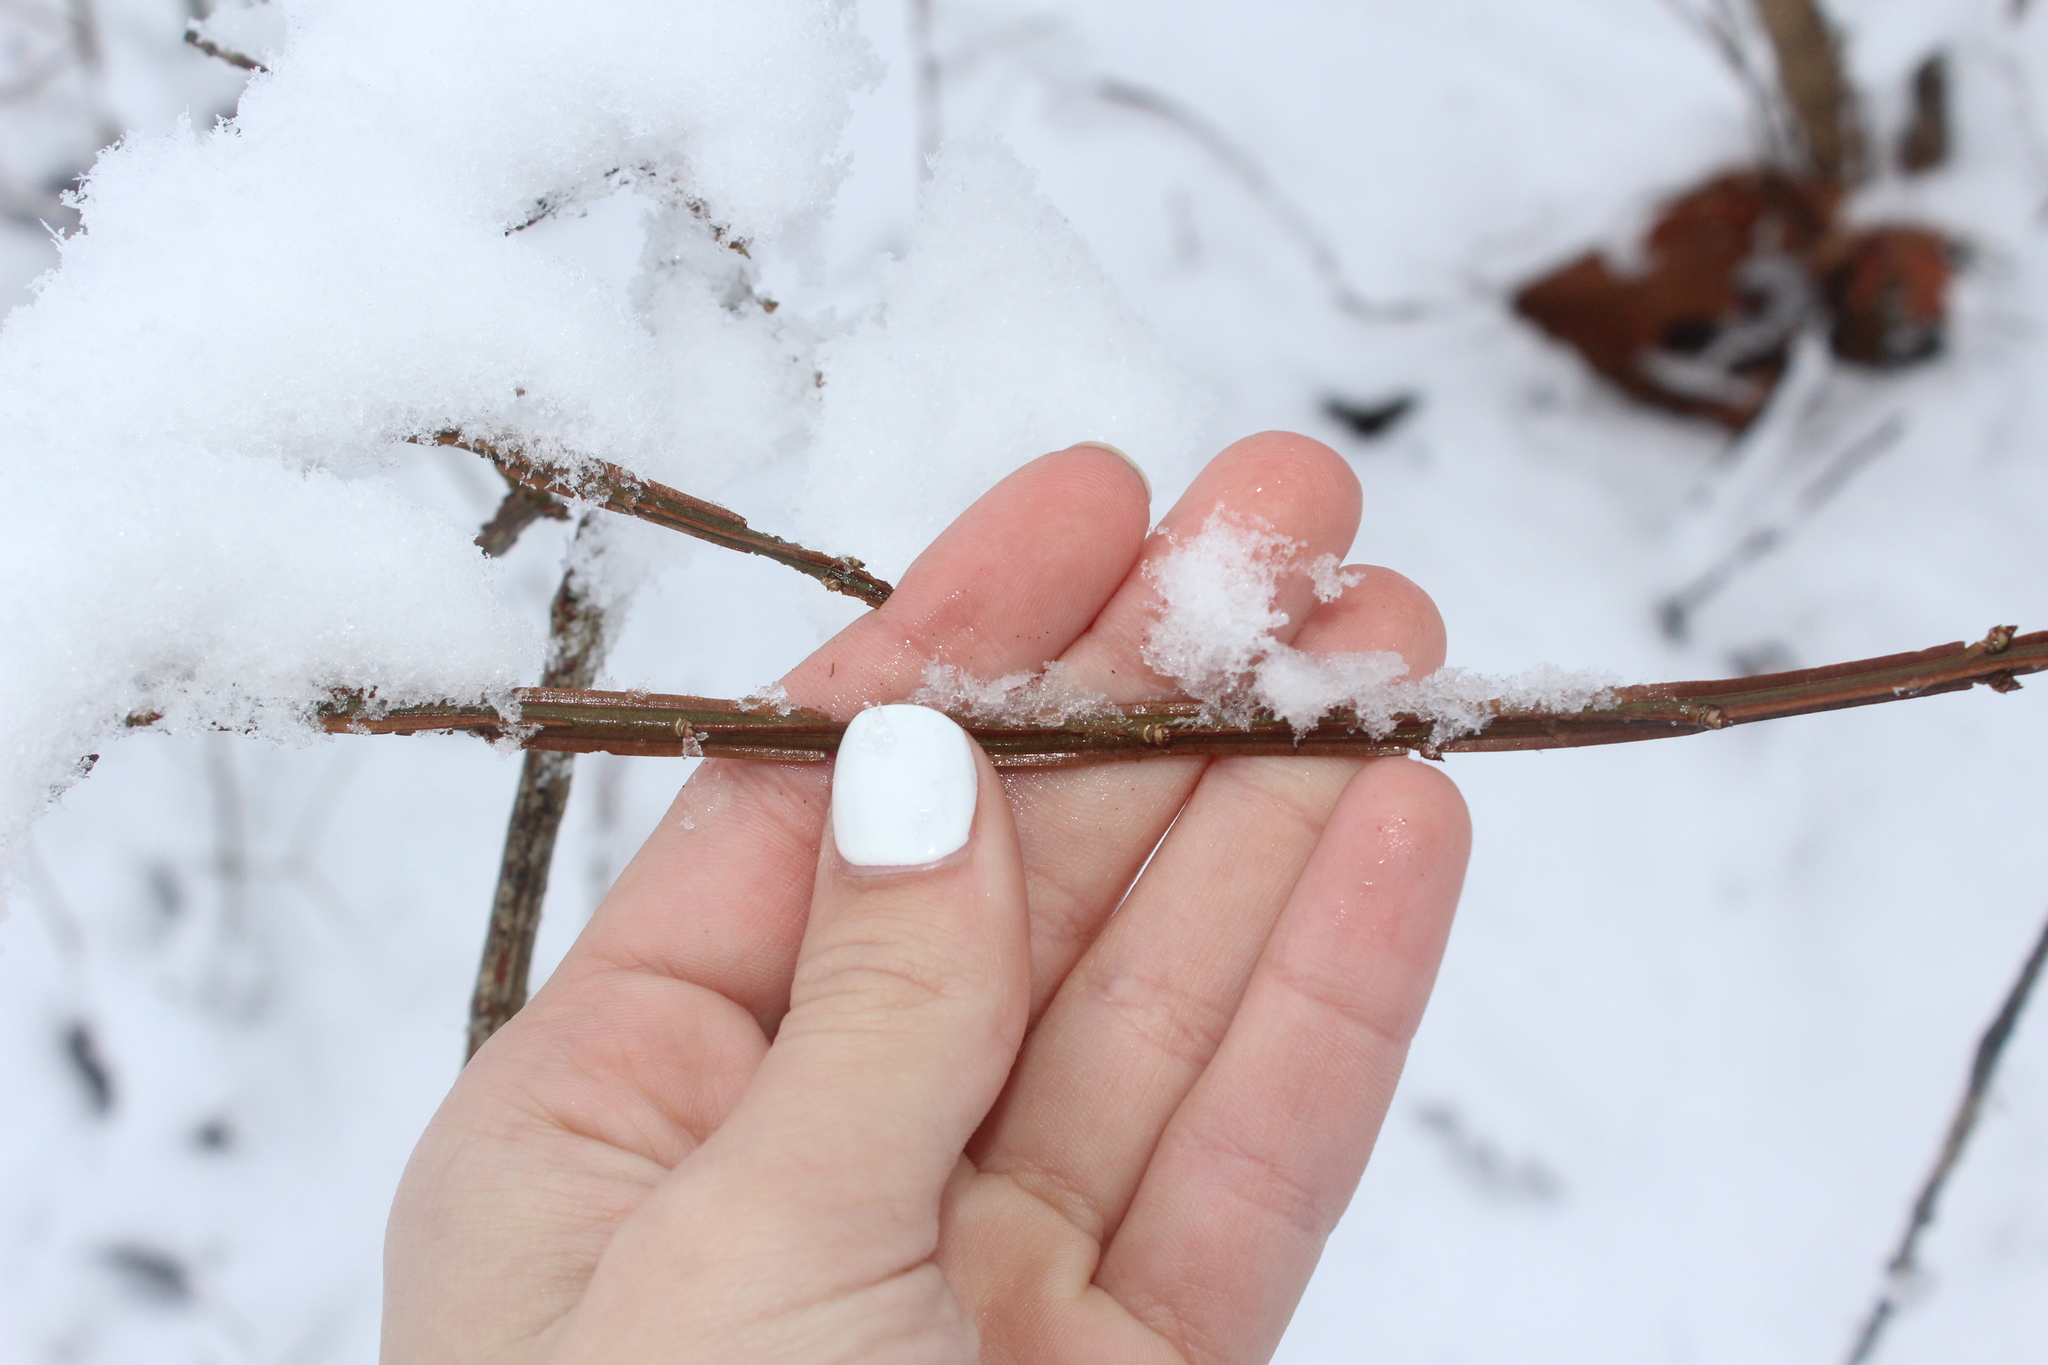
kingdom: Plantae
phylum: Tracheophyta
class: Magnoliopsida
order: Celastrales
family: Celastraceae
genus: Euonymus
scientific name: Euonymus alatus
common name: Winged euonymus
